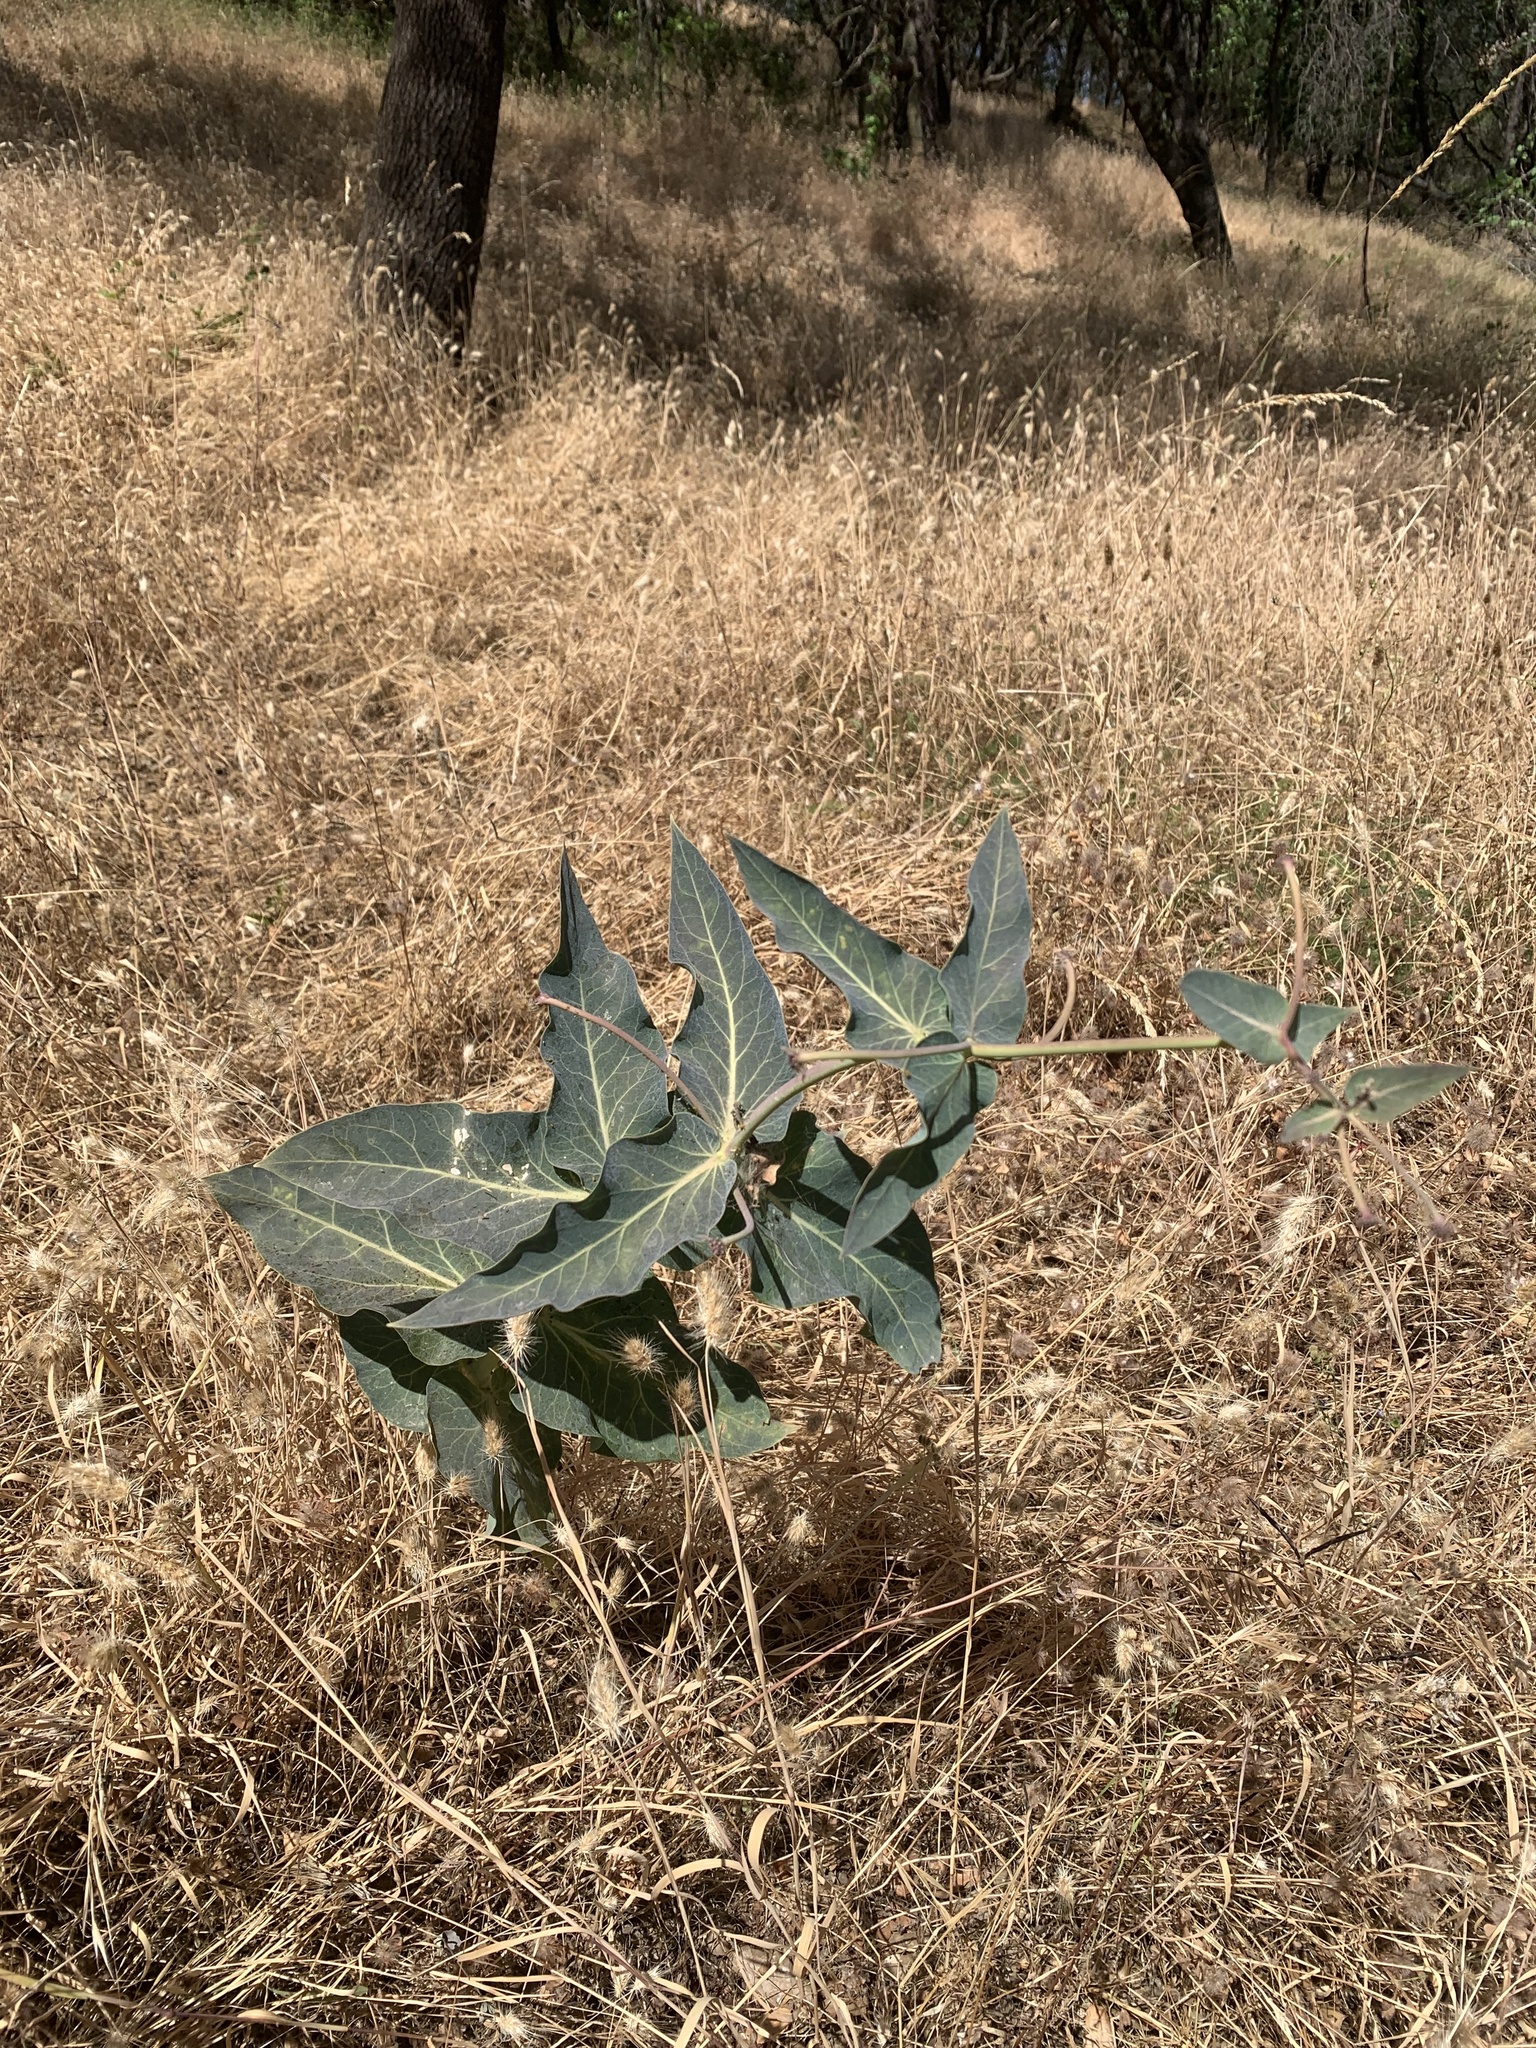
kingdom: Plantae
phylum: Tracheophyta
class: Magnoliopsida
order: Gentianales
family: Apocynaceae
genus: Asclepias
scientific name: Asclepias cordifolia
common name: Purple milkweed
